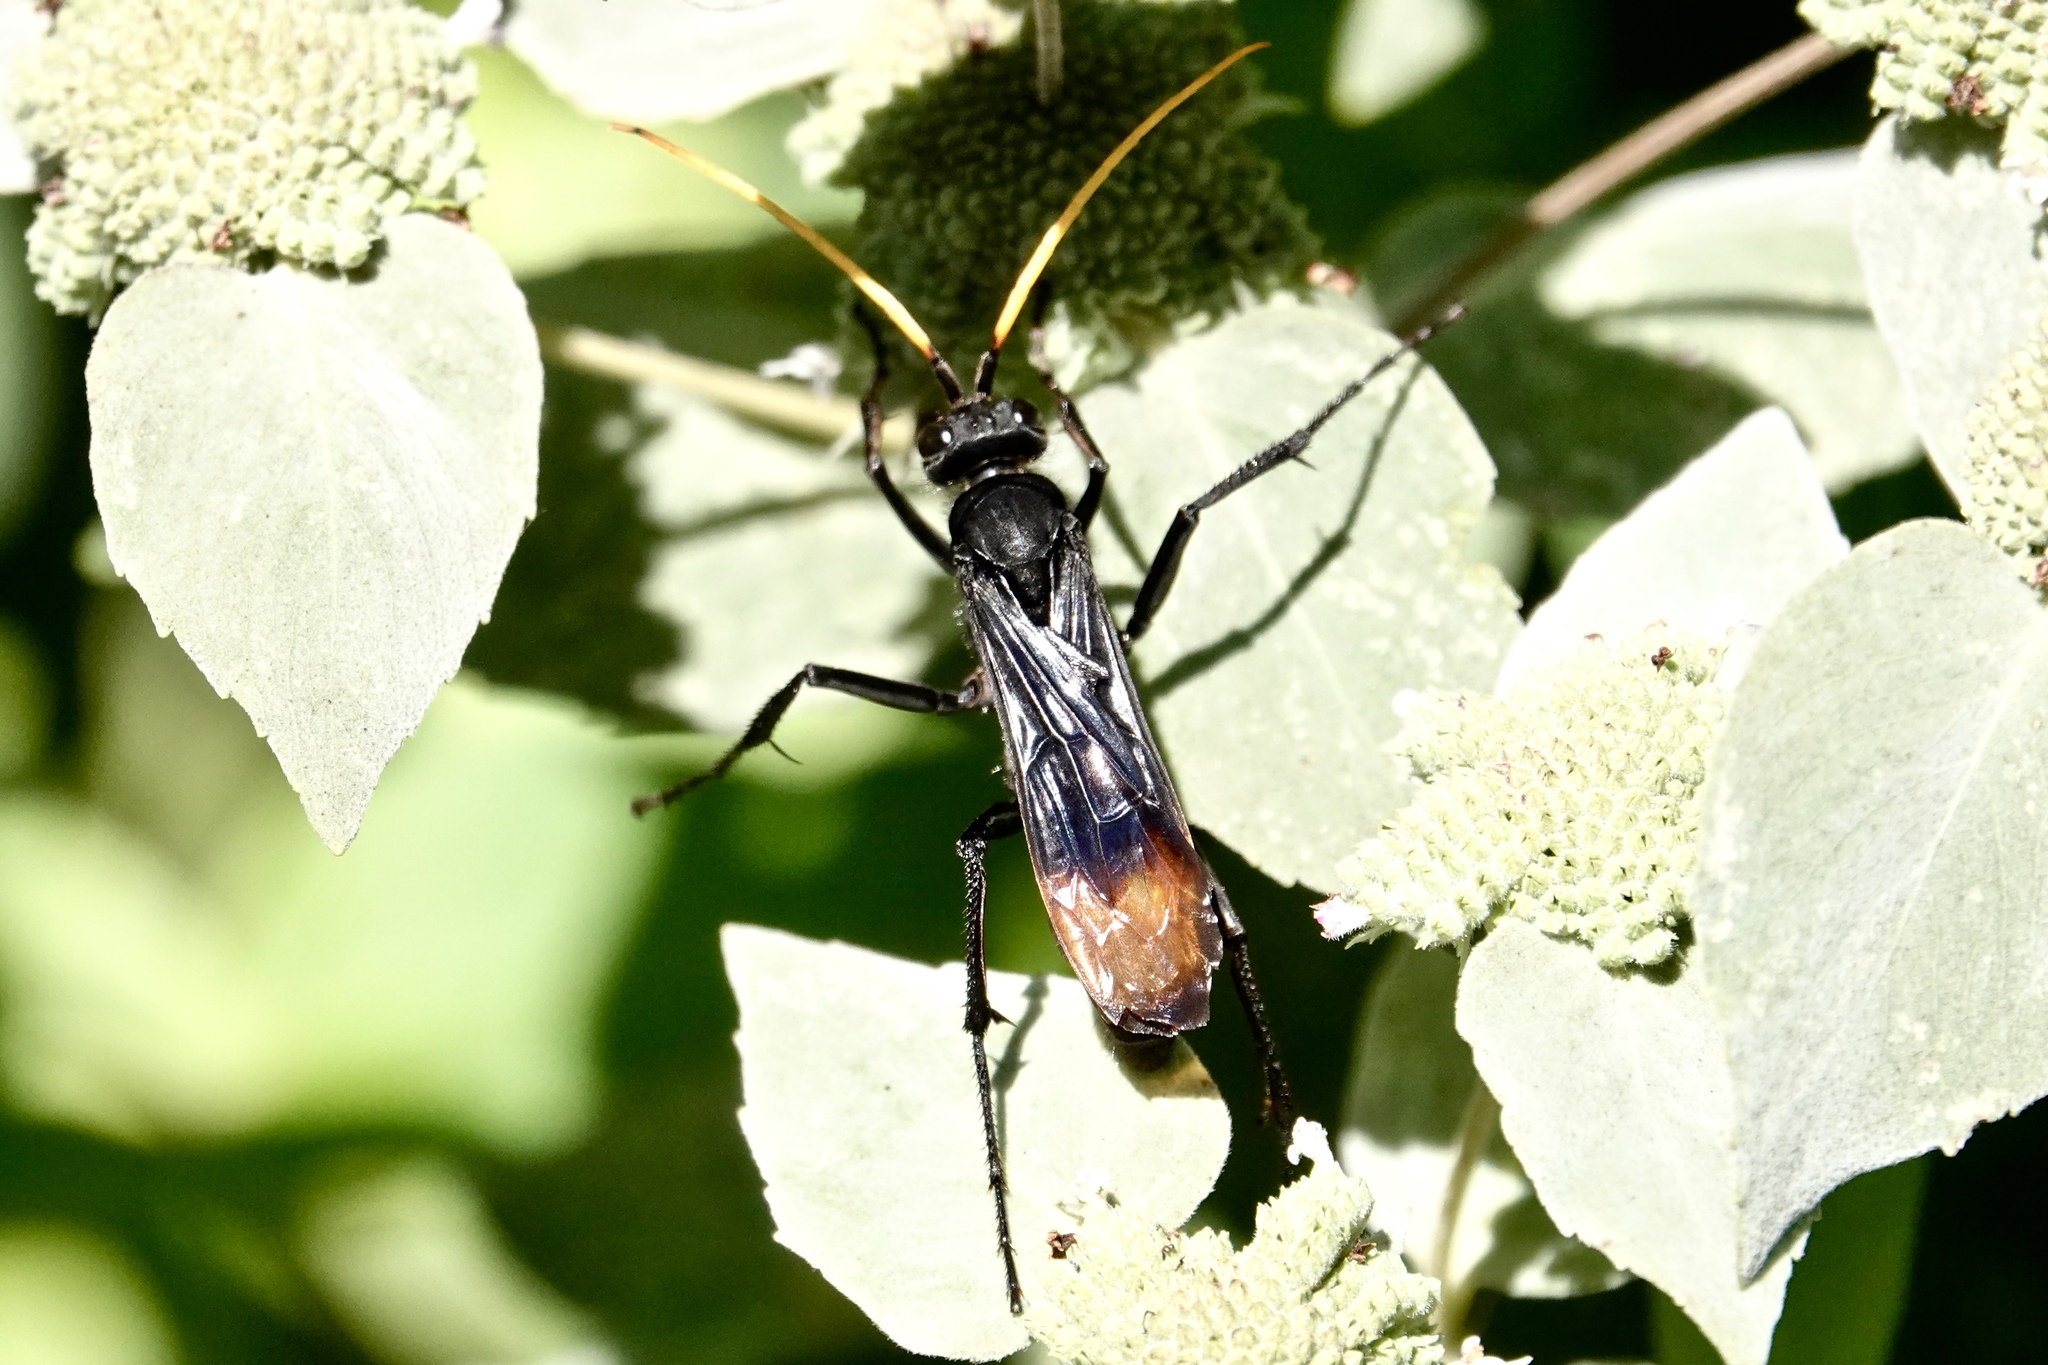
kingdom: Animalia
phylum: Arthropoda
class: Insecta
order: Hymenoptera
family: Pompilidae
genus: Entypus
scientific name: Entypus unifasciatus
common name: Eastern tawny-horned spider wasp
